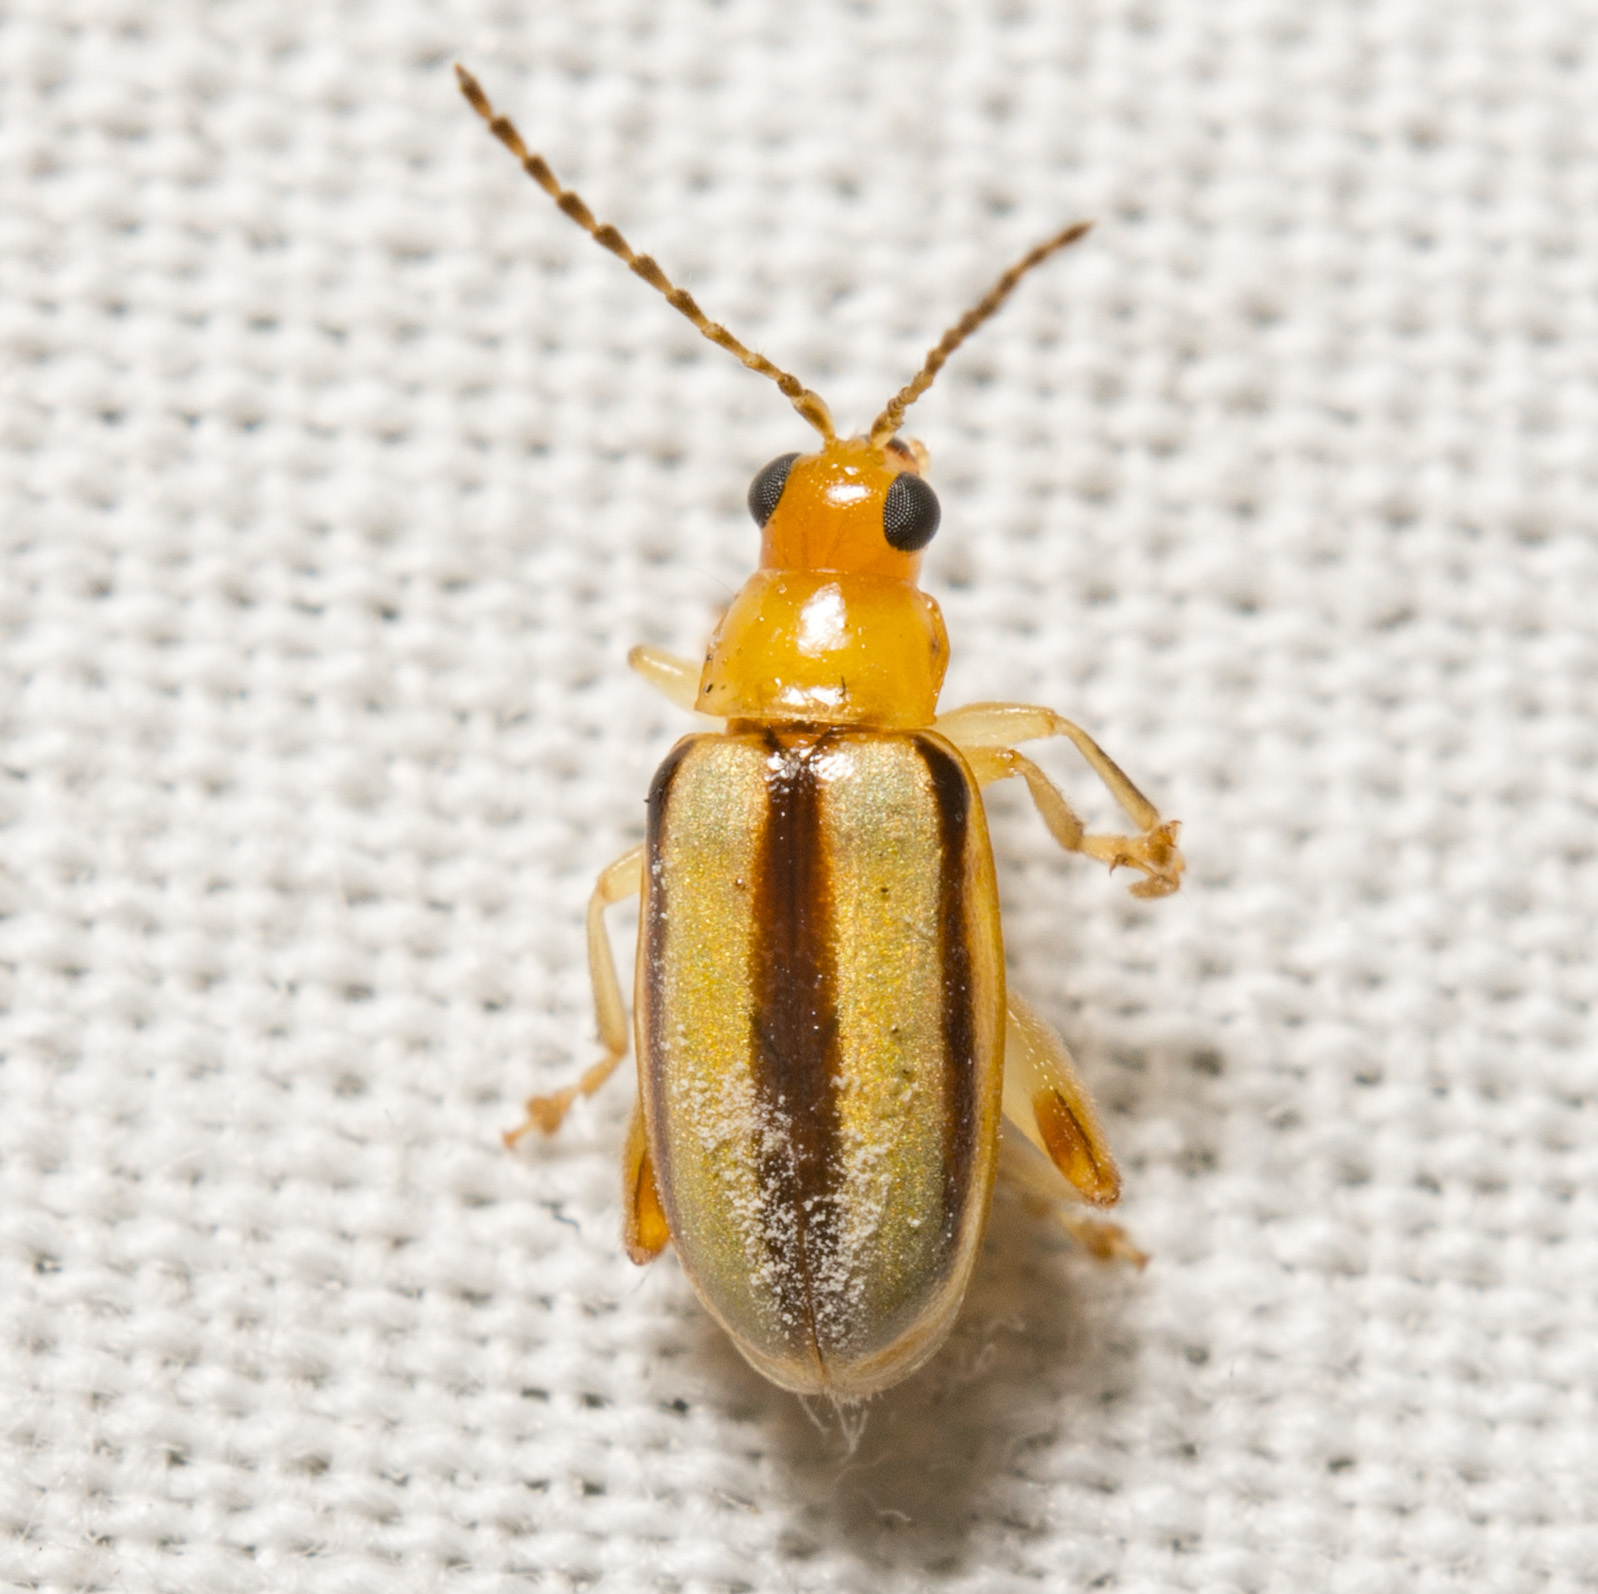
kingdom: Animalia
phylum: Arthropoda
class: Insecta
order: Coleoptera
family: Chrysomelidae
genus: Systena
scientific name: Systena gracilenta
